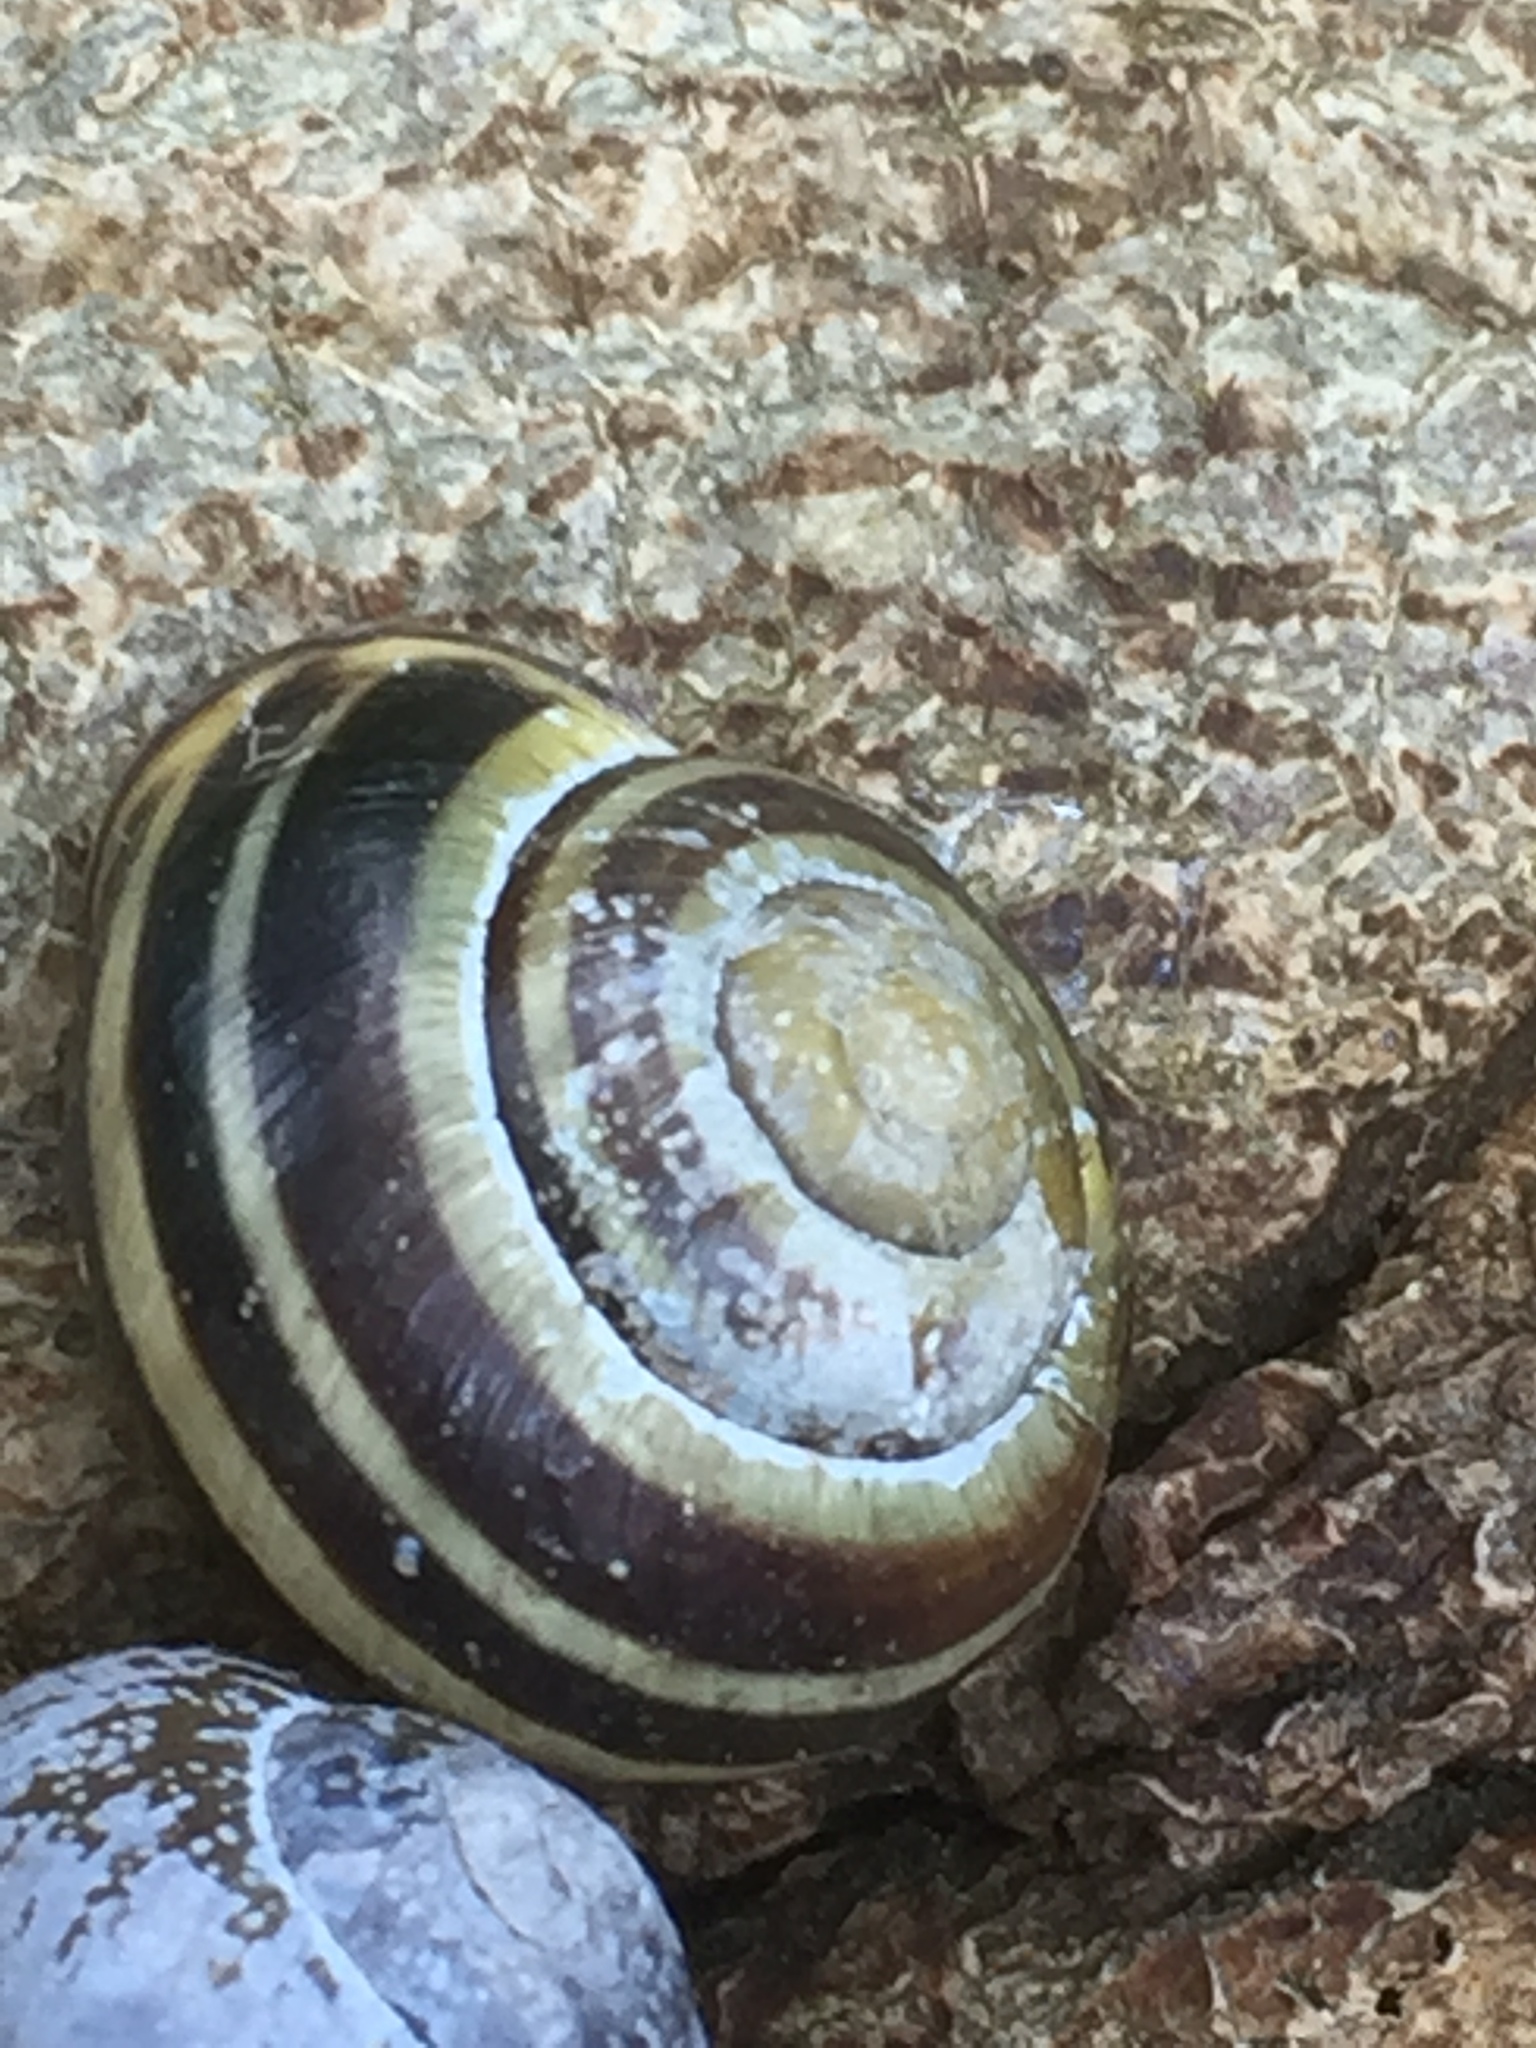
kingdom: Animalia
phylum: Mollusca
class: Gastropoda
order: Stylommatophora
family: Helicidae
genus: Cepaea
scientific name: Cepaea nemoralis
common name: Grovesnail
